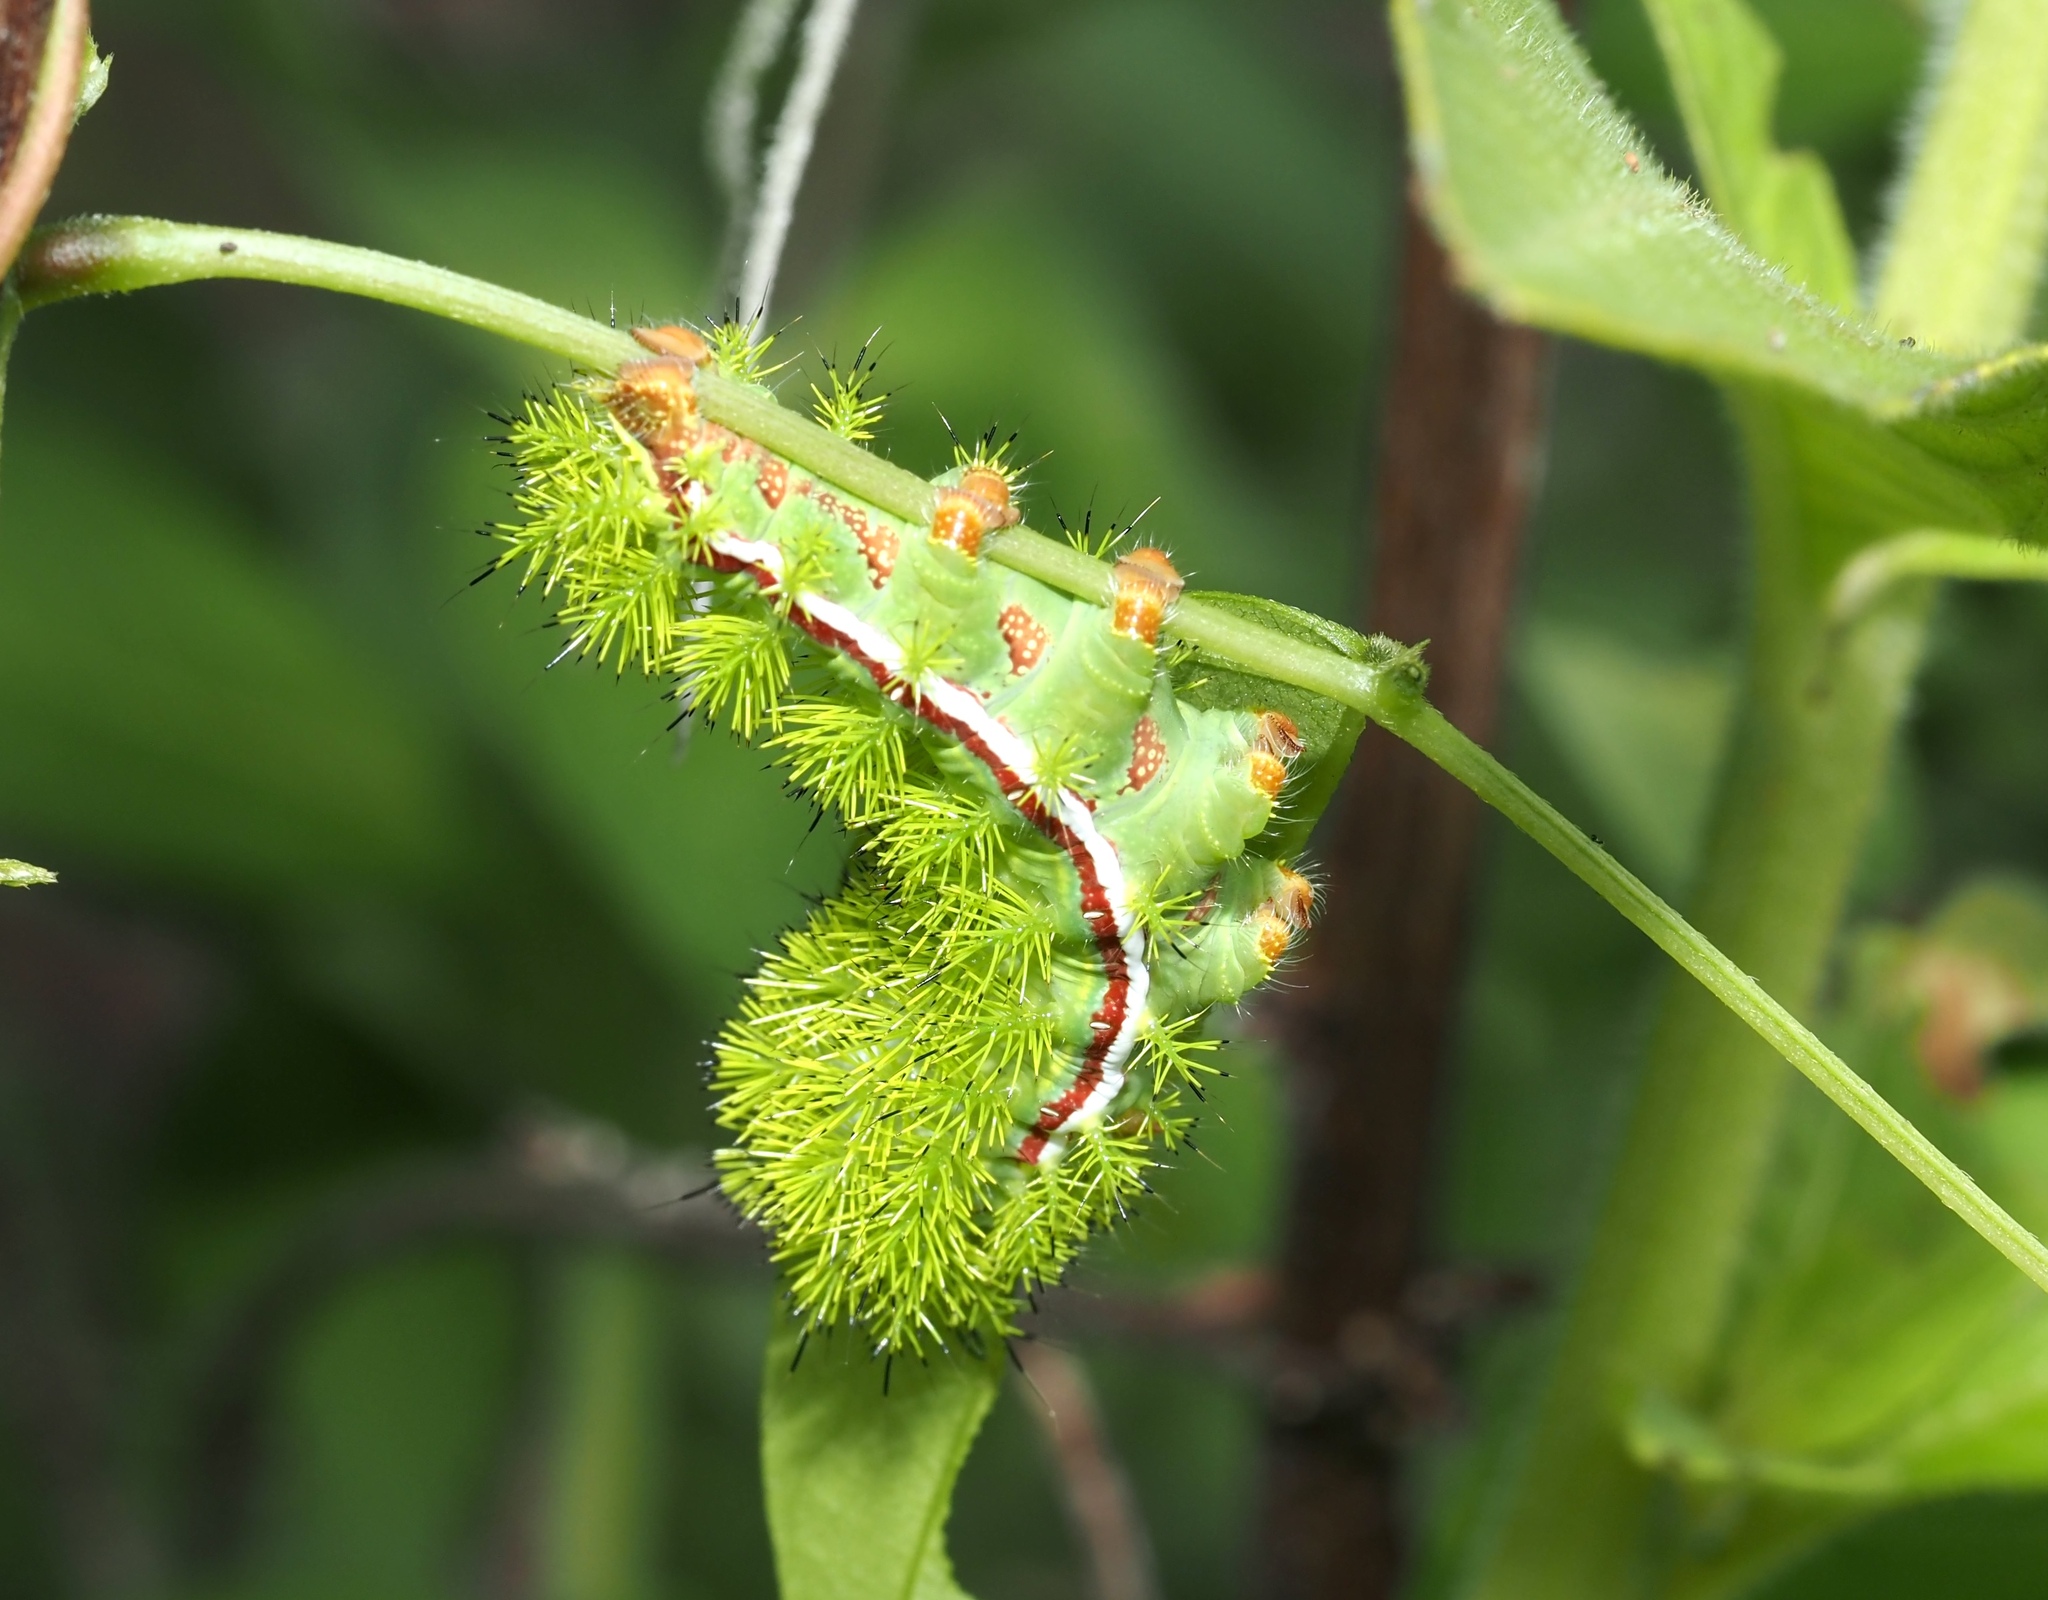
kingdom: Animalia
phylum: Arthropoda
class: Insecta
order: Lepidoptera
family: Saturniidae
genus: Automeris
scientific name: Automeris io
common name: Io moth
